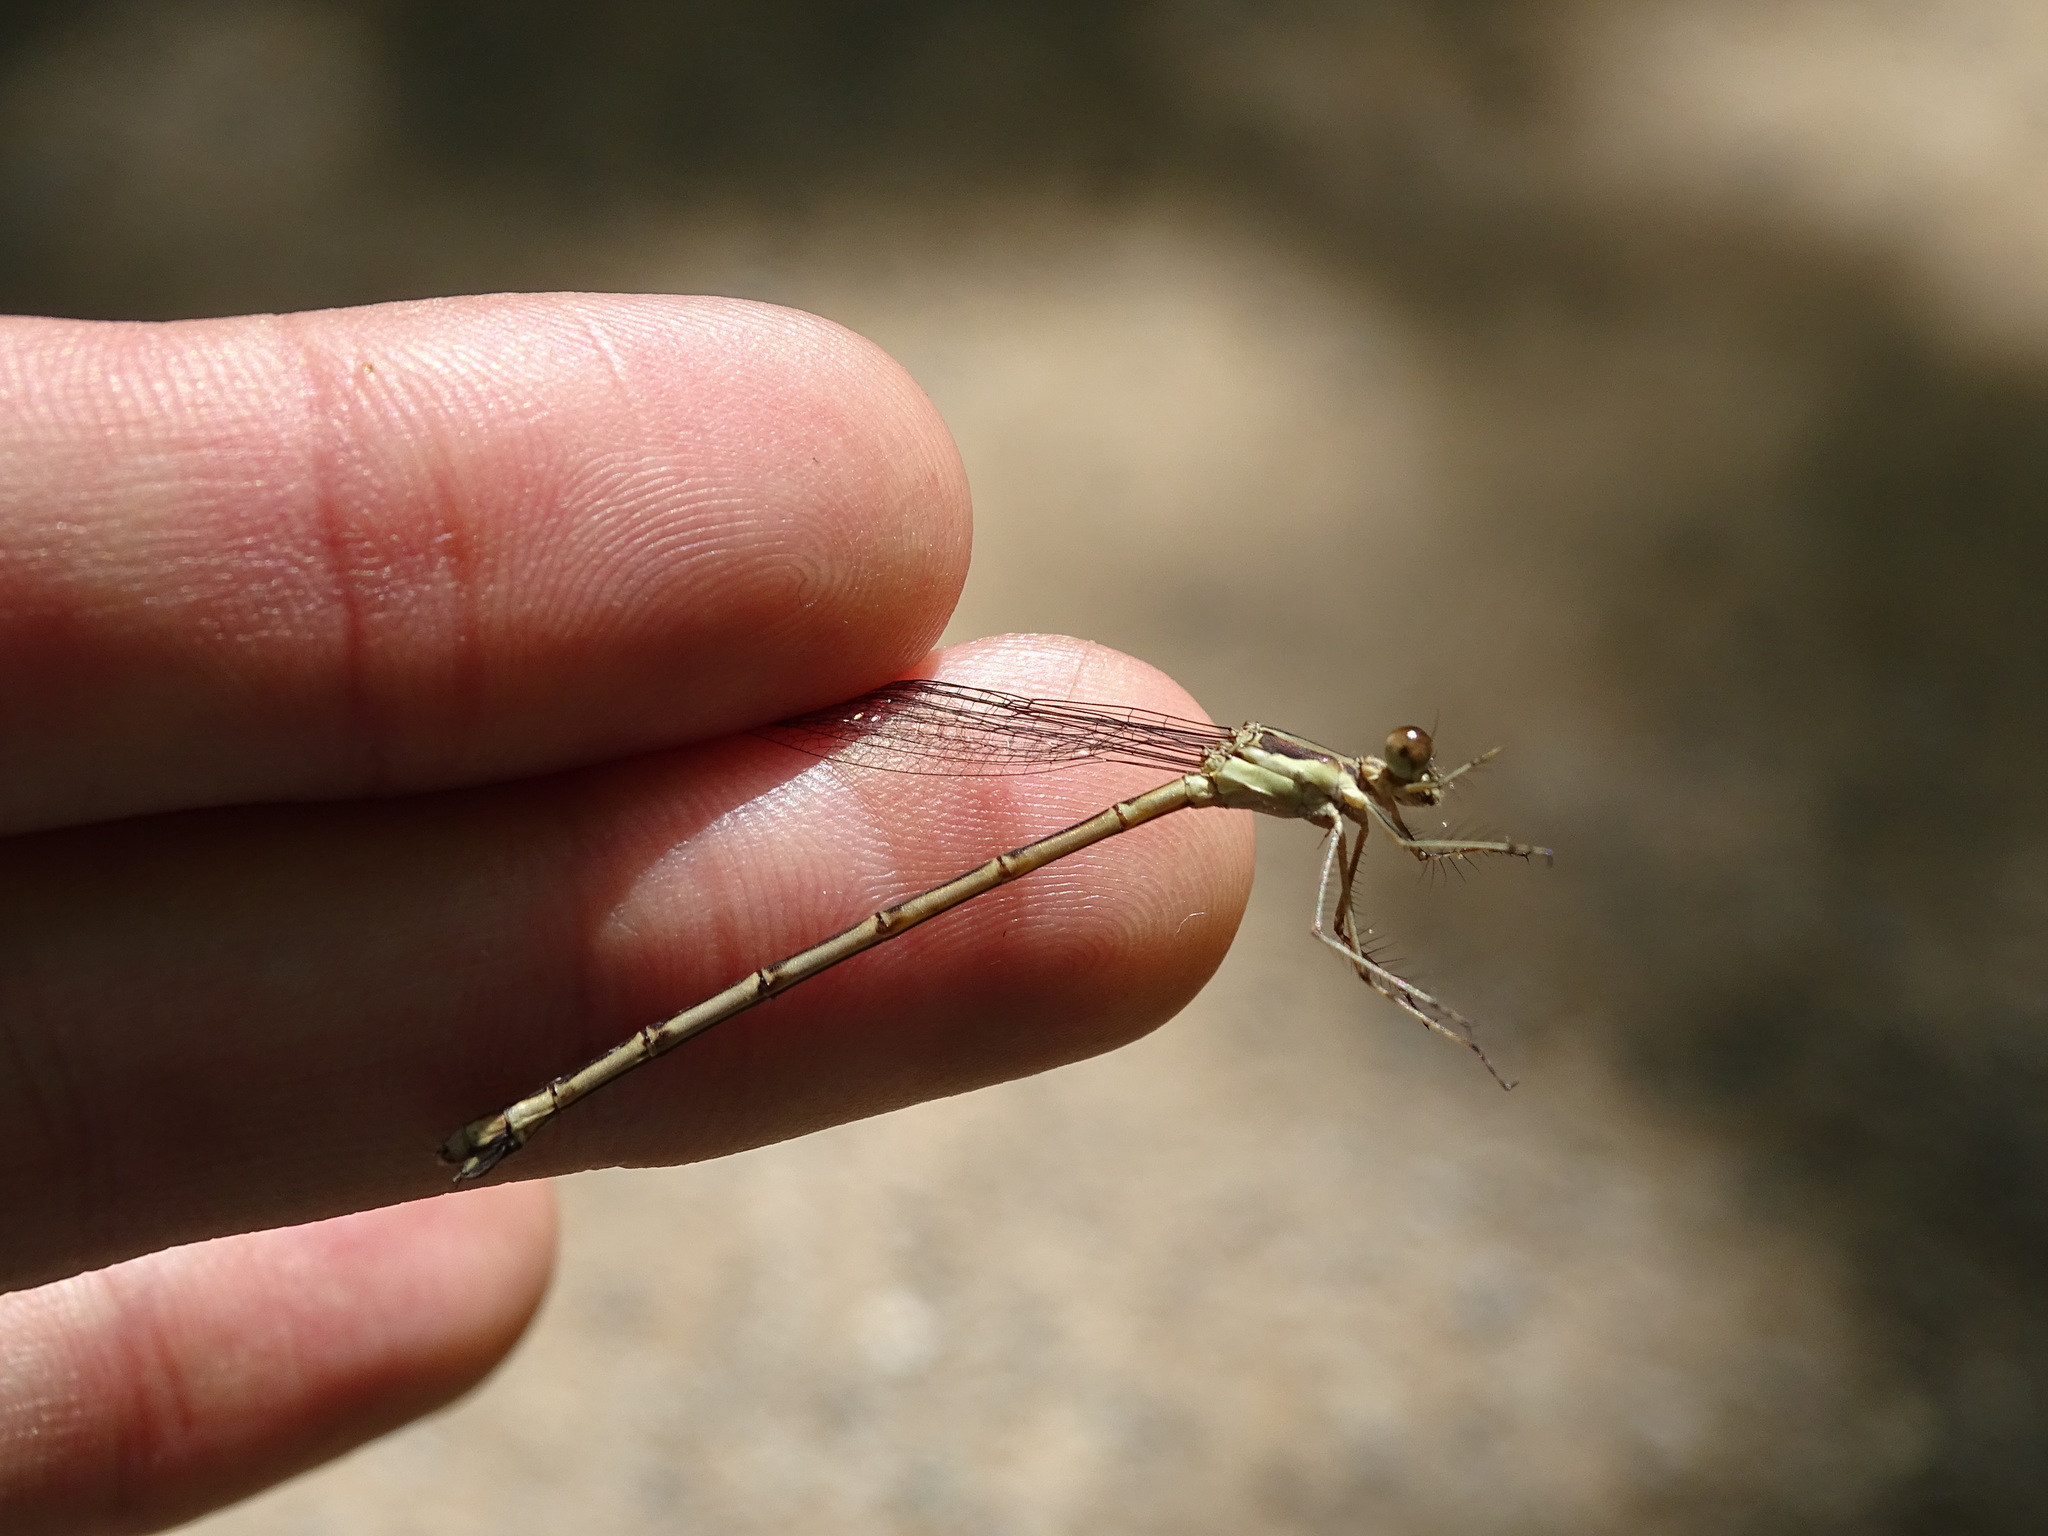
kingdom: Animalia
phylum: Arthropoda
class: Insecta
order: Odonata
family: Lestidae
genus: Lestes
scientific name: Lestes rectangularis
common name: Slender spreadwing
